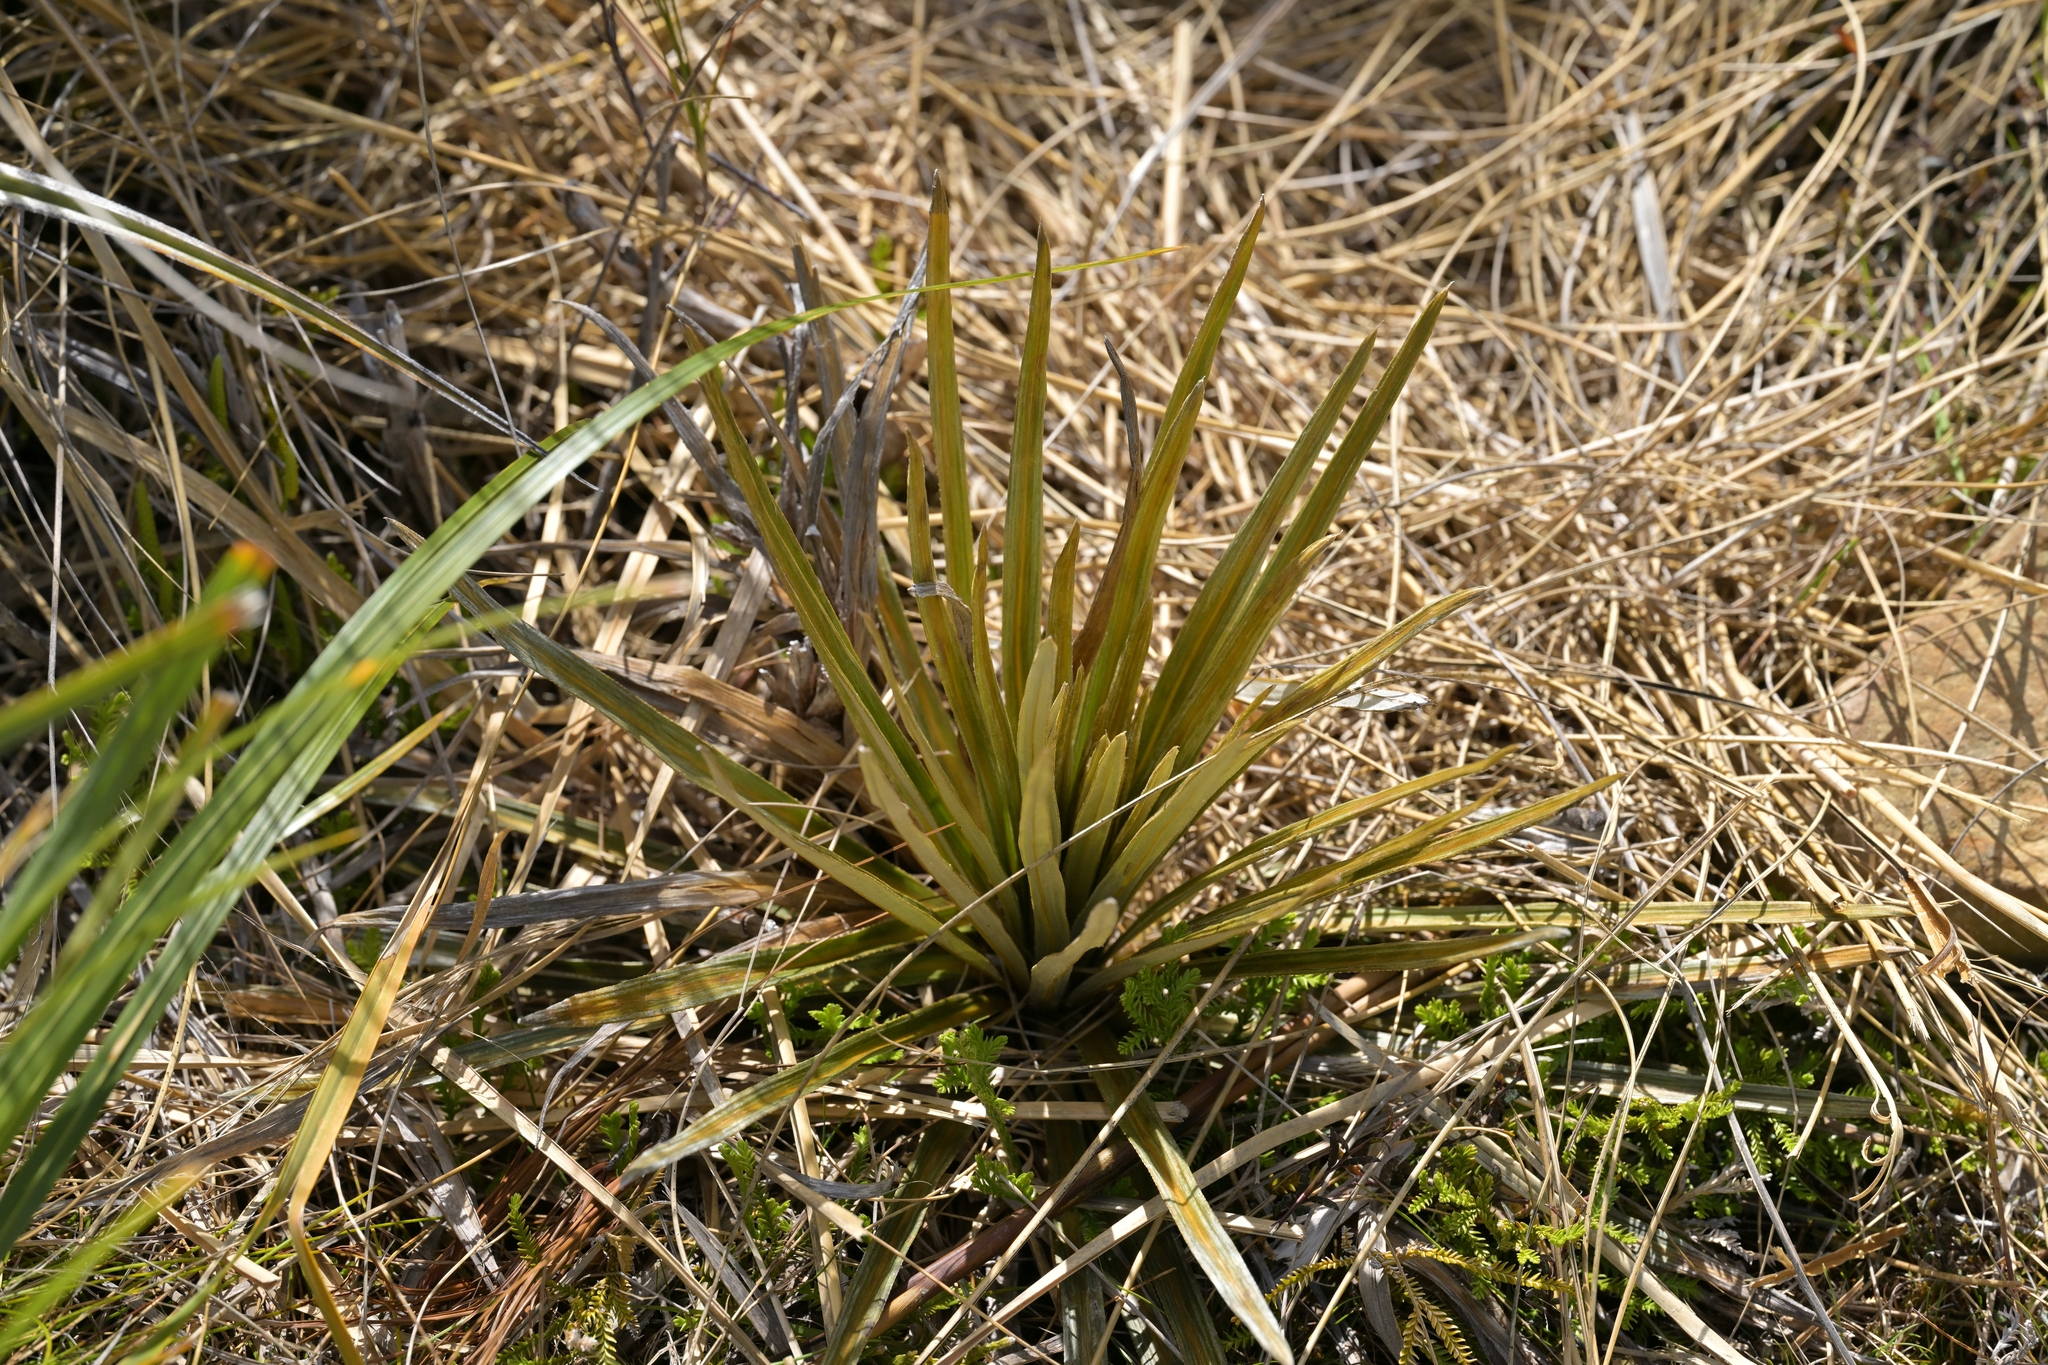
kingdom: Plantae
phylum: Tracheophyta
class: Magnoliopsida
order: Asterales
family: Asteraceae
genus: Celmisia
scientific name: Celmisia armstrongii
